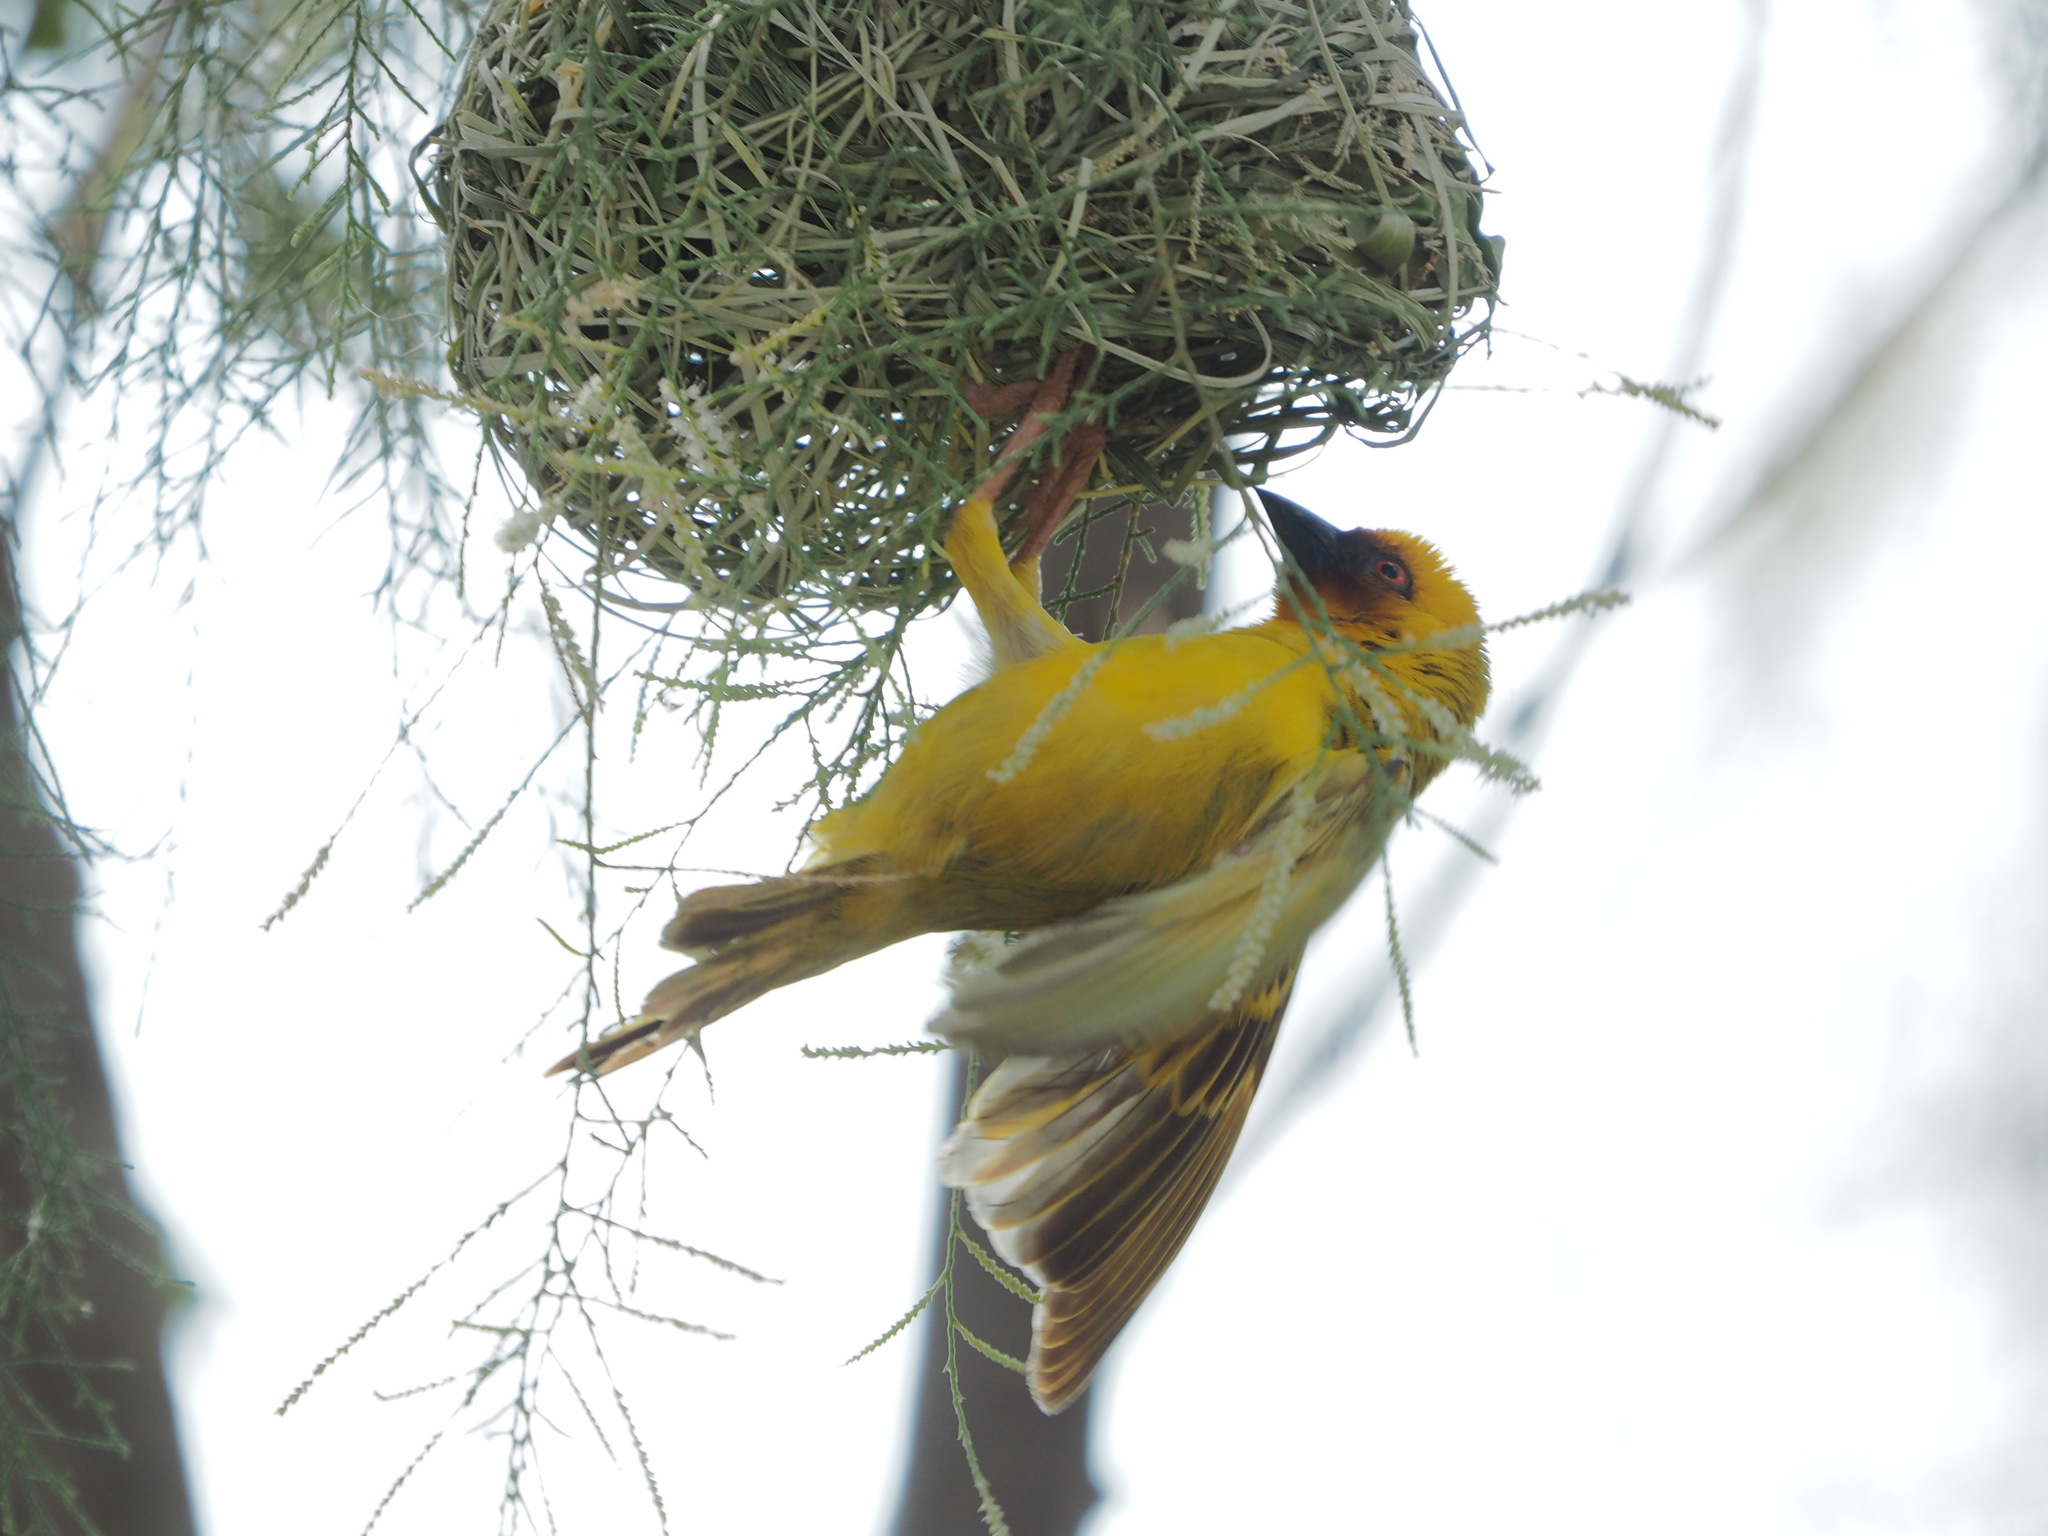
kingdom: Animalia
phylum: Chordata
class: Aves
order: Passeriformes
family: Ploceidae
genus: Ploceus
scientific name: Ploceus galbula
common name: Rüppell's weaver
